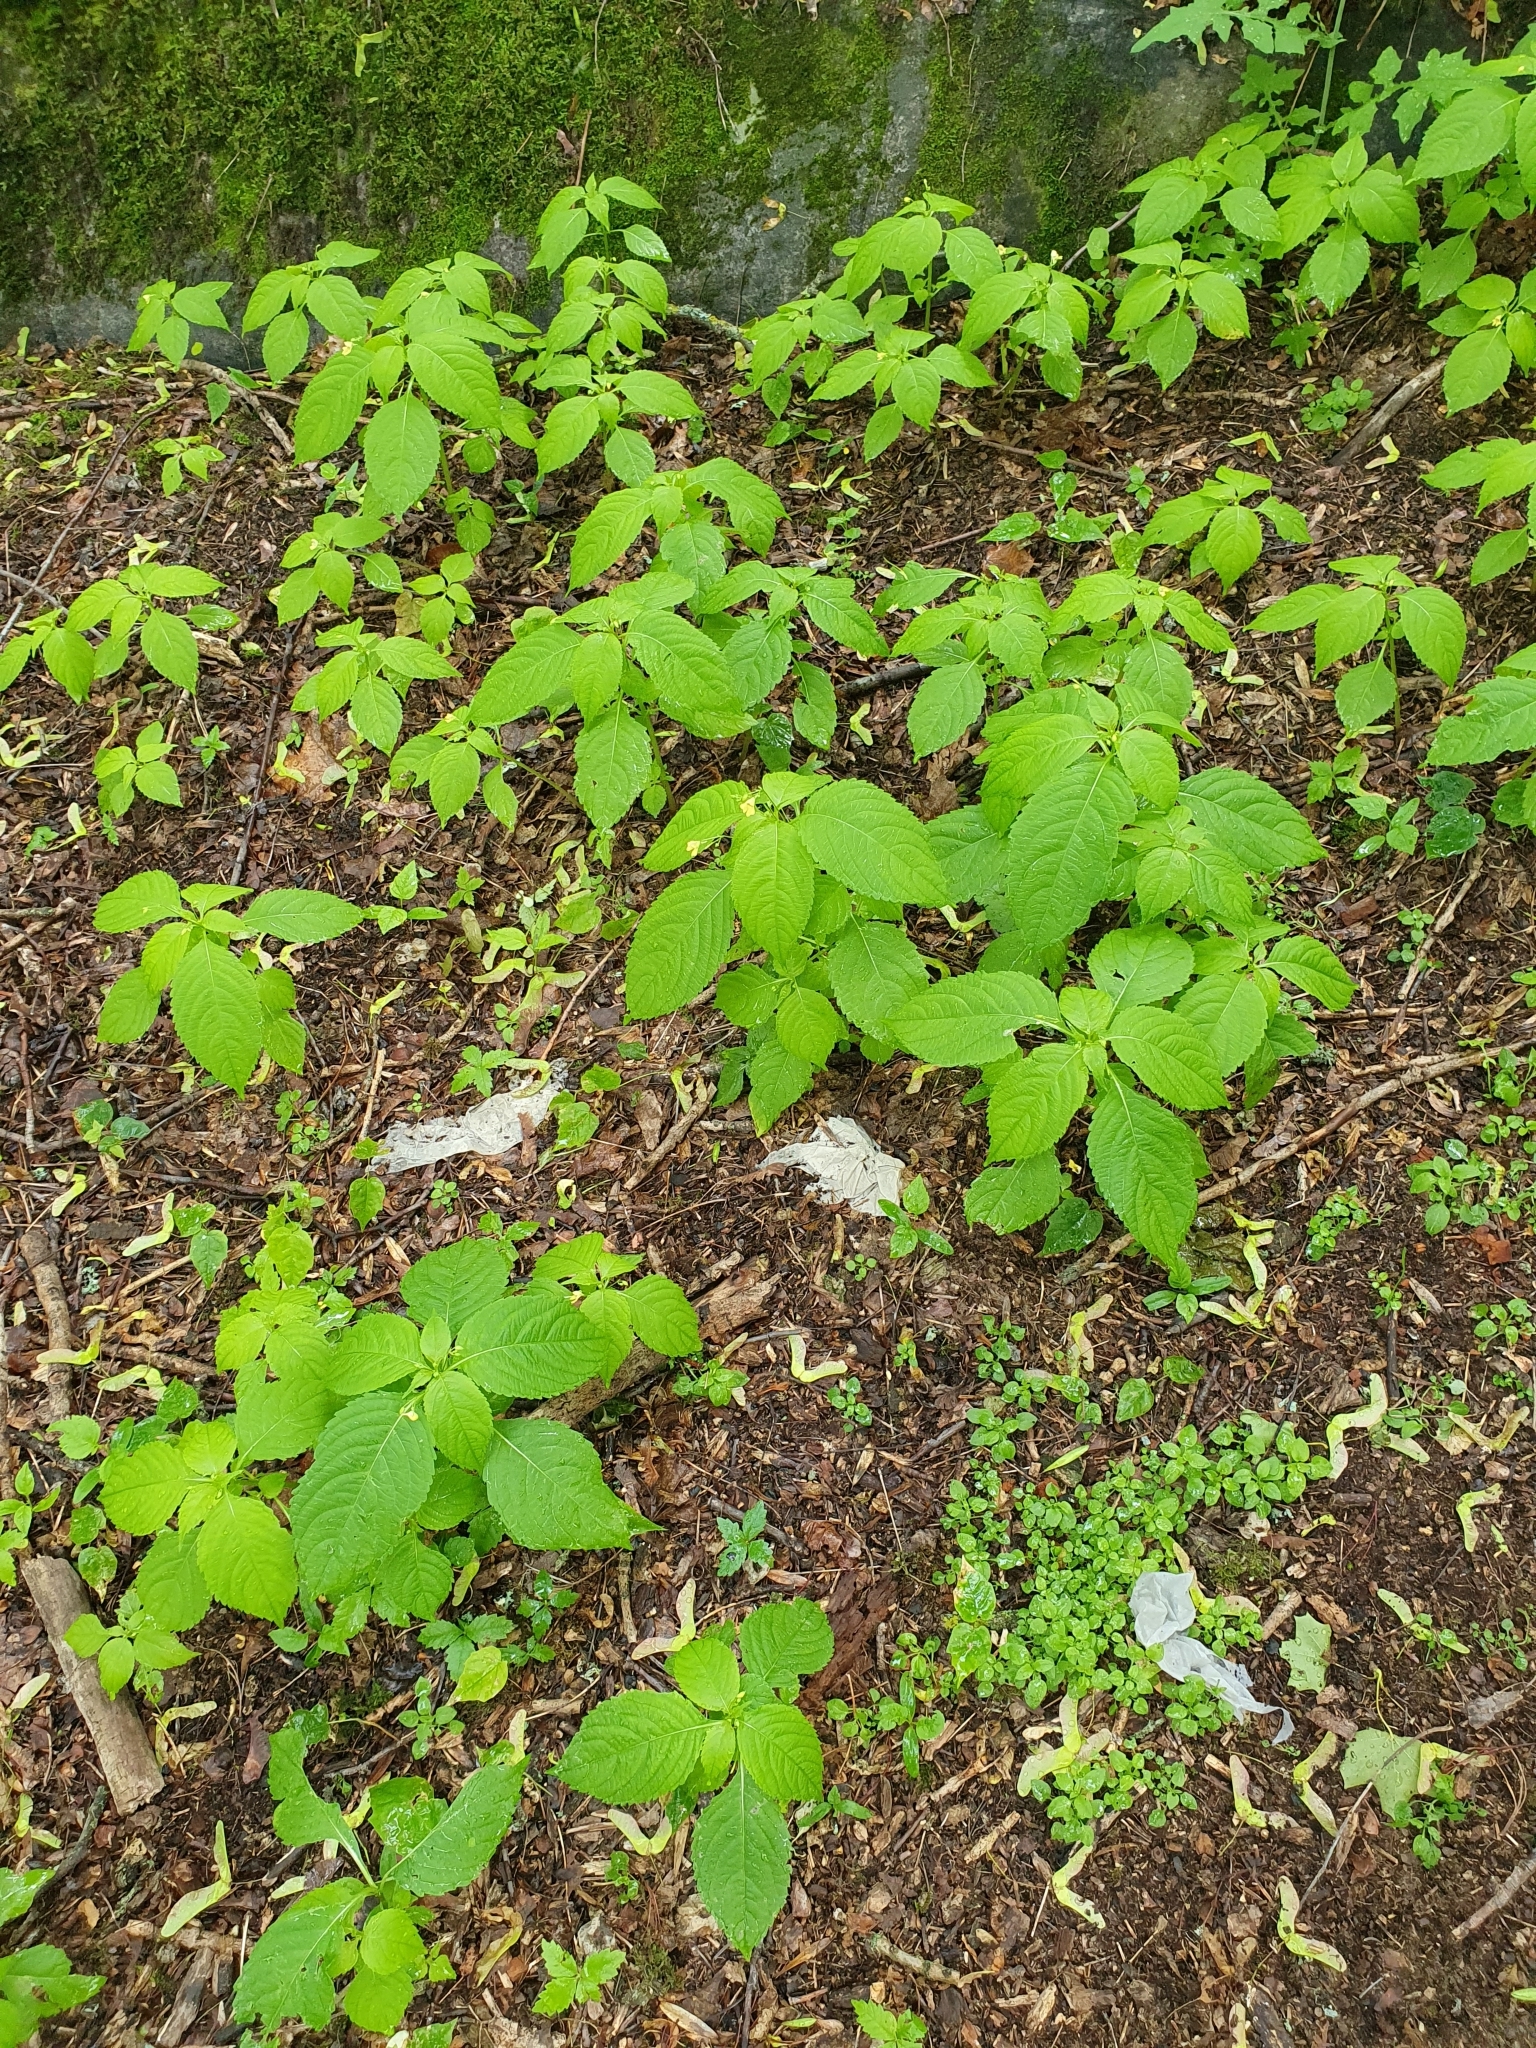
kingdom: Plantae
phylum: Tracheophyta
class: Magnoliopsida
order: Ericales
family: Balsaminaceae
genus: Impatiens
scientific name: Impatiens parviflora
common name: Small balsam
